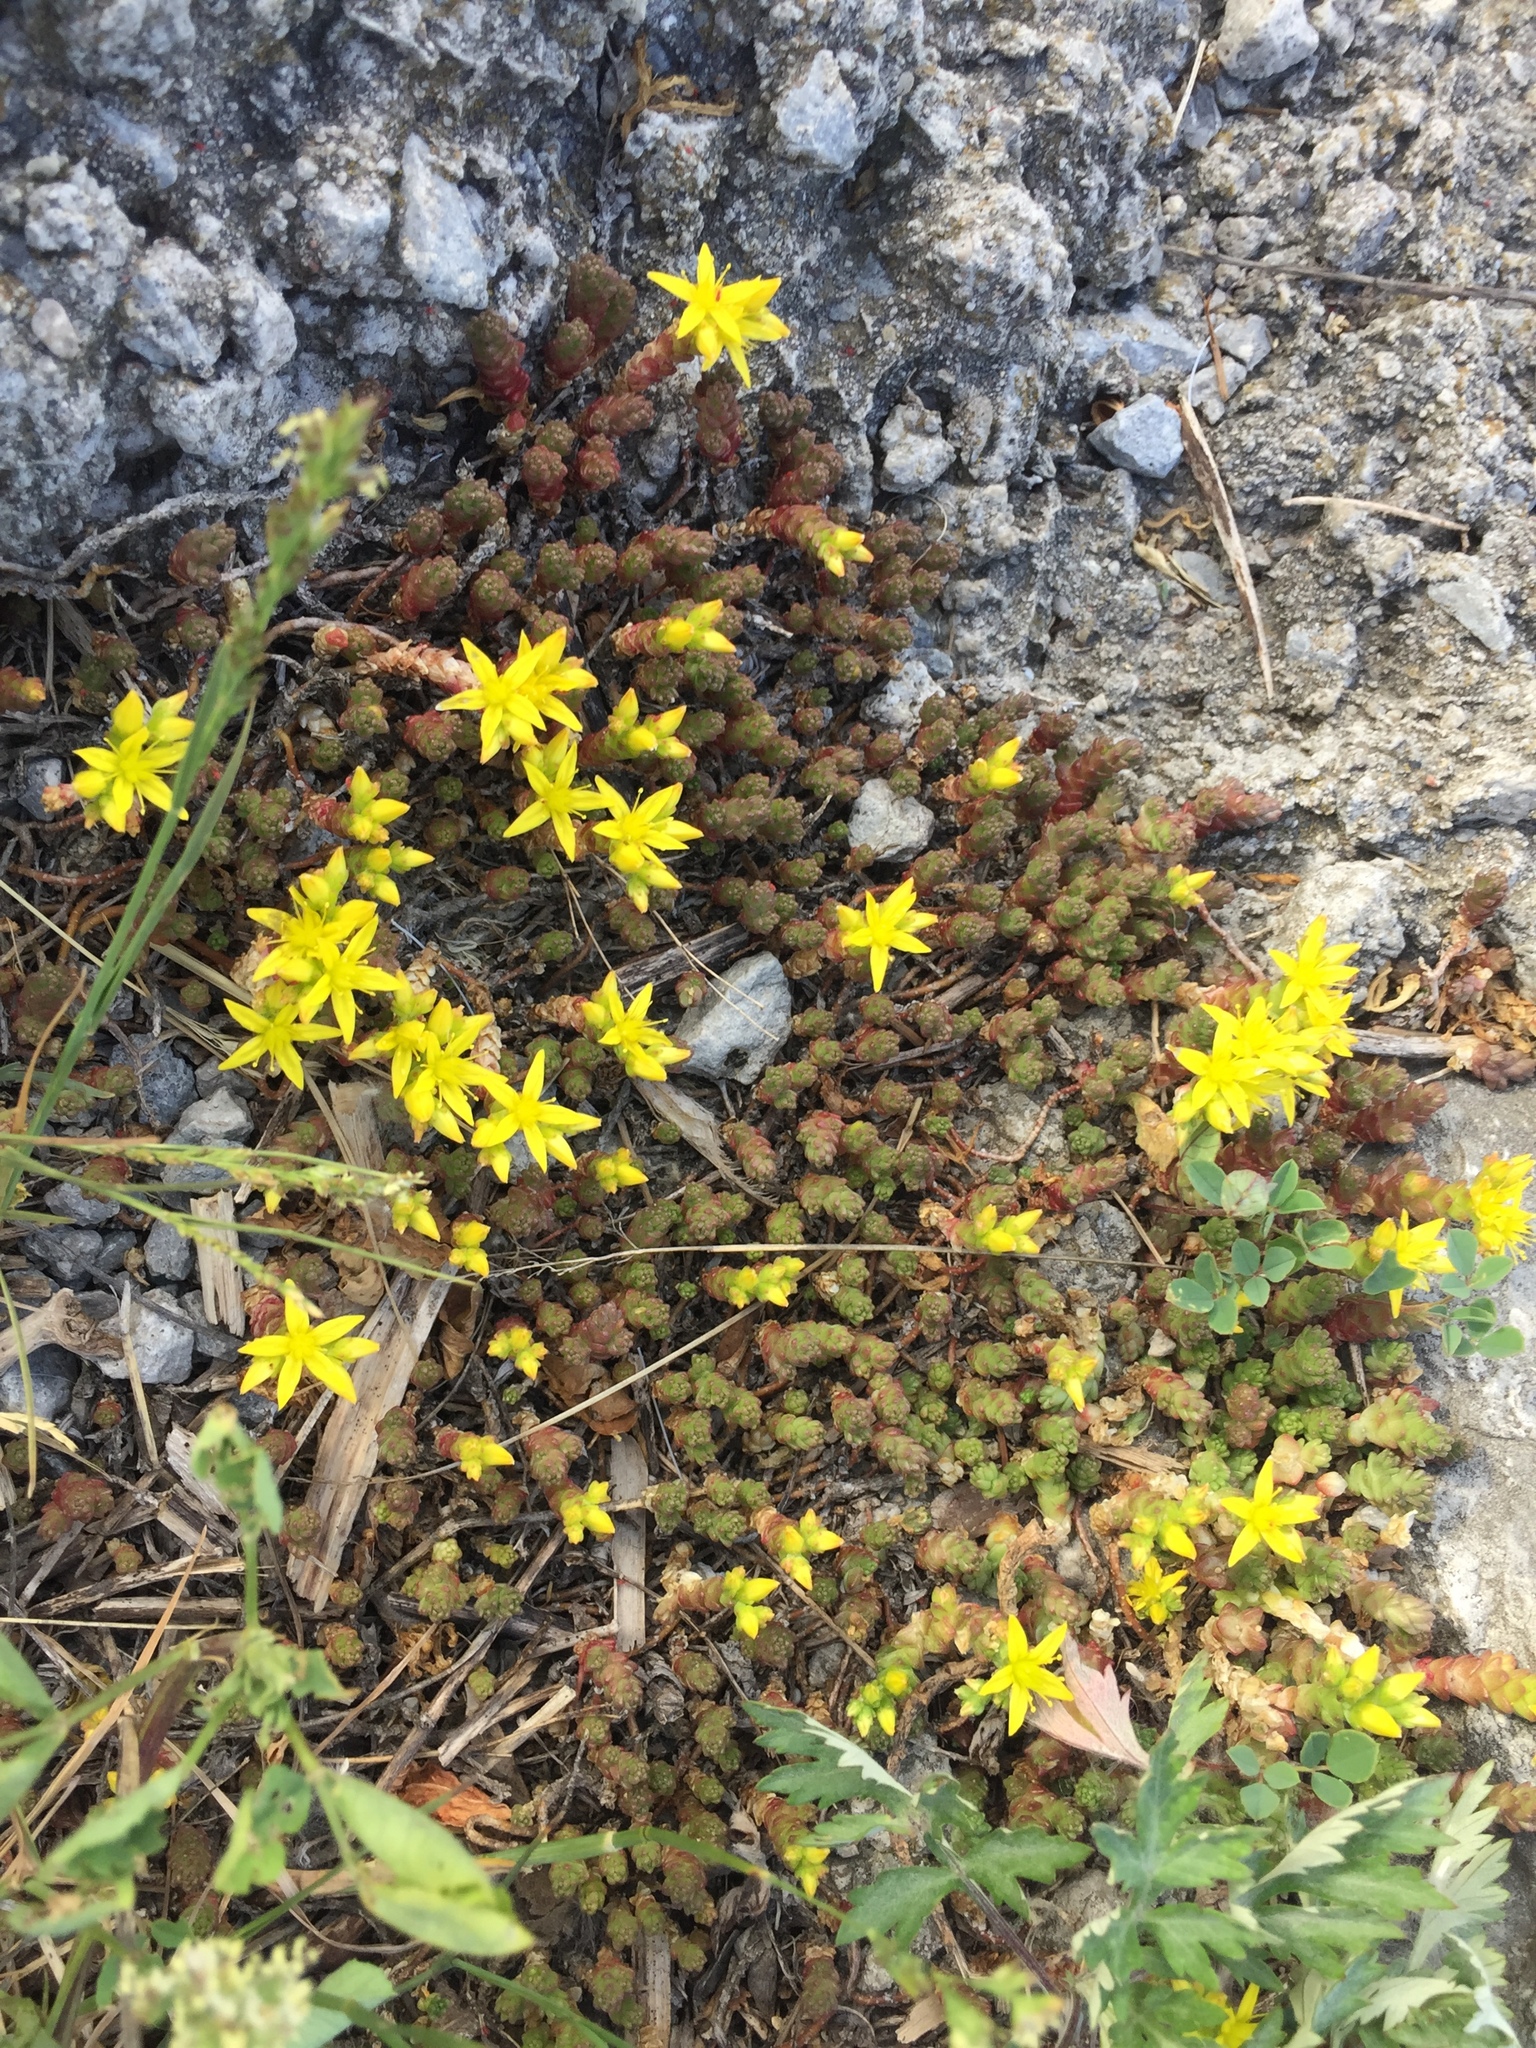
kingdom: Plantae
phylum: Tracheophyta
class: Magnoliopsida
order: Saxifragales
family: Crassulaceae
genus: Sedum
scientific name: Sedum acre
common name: Biting stonecrop
